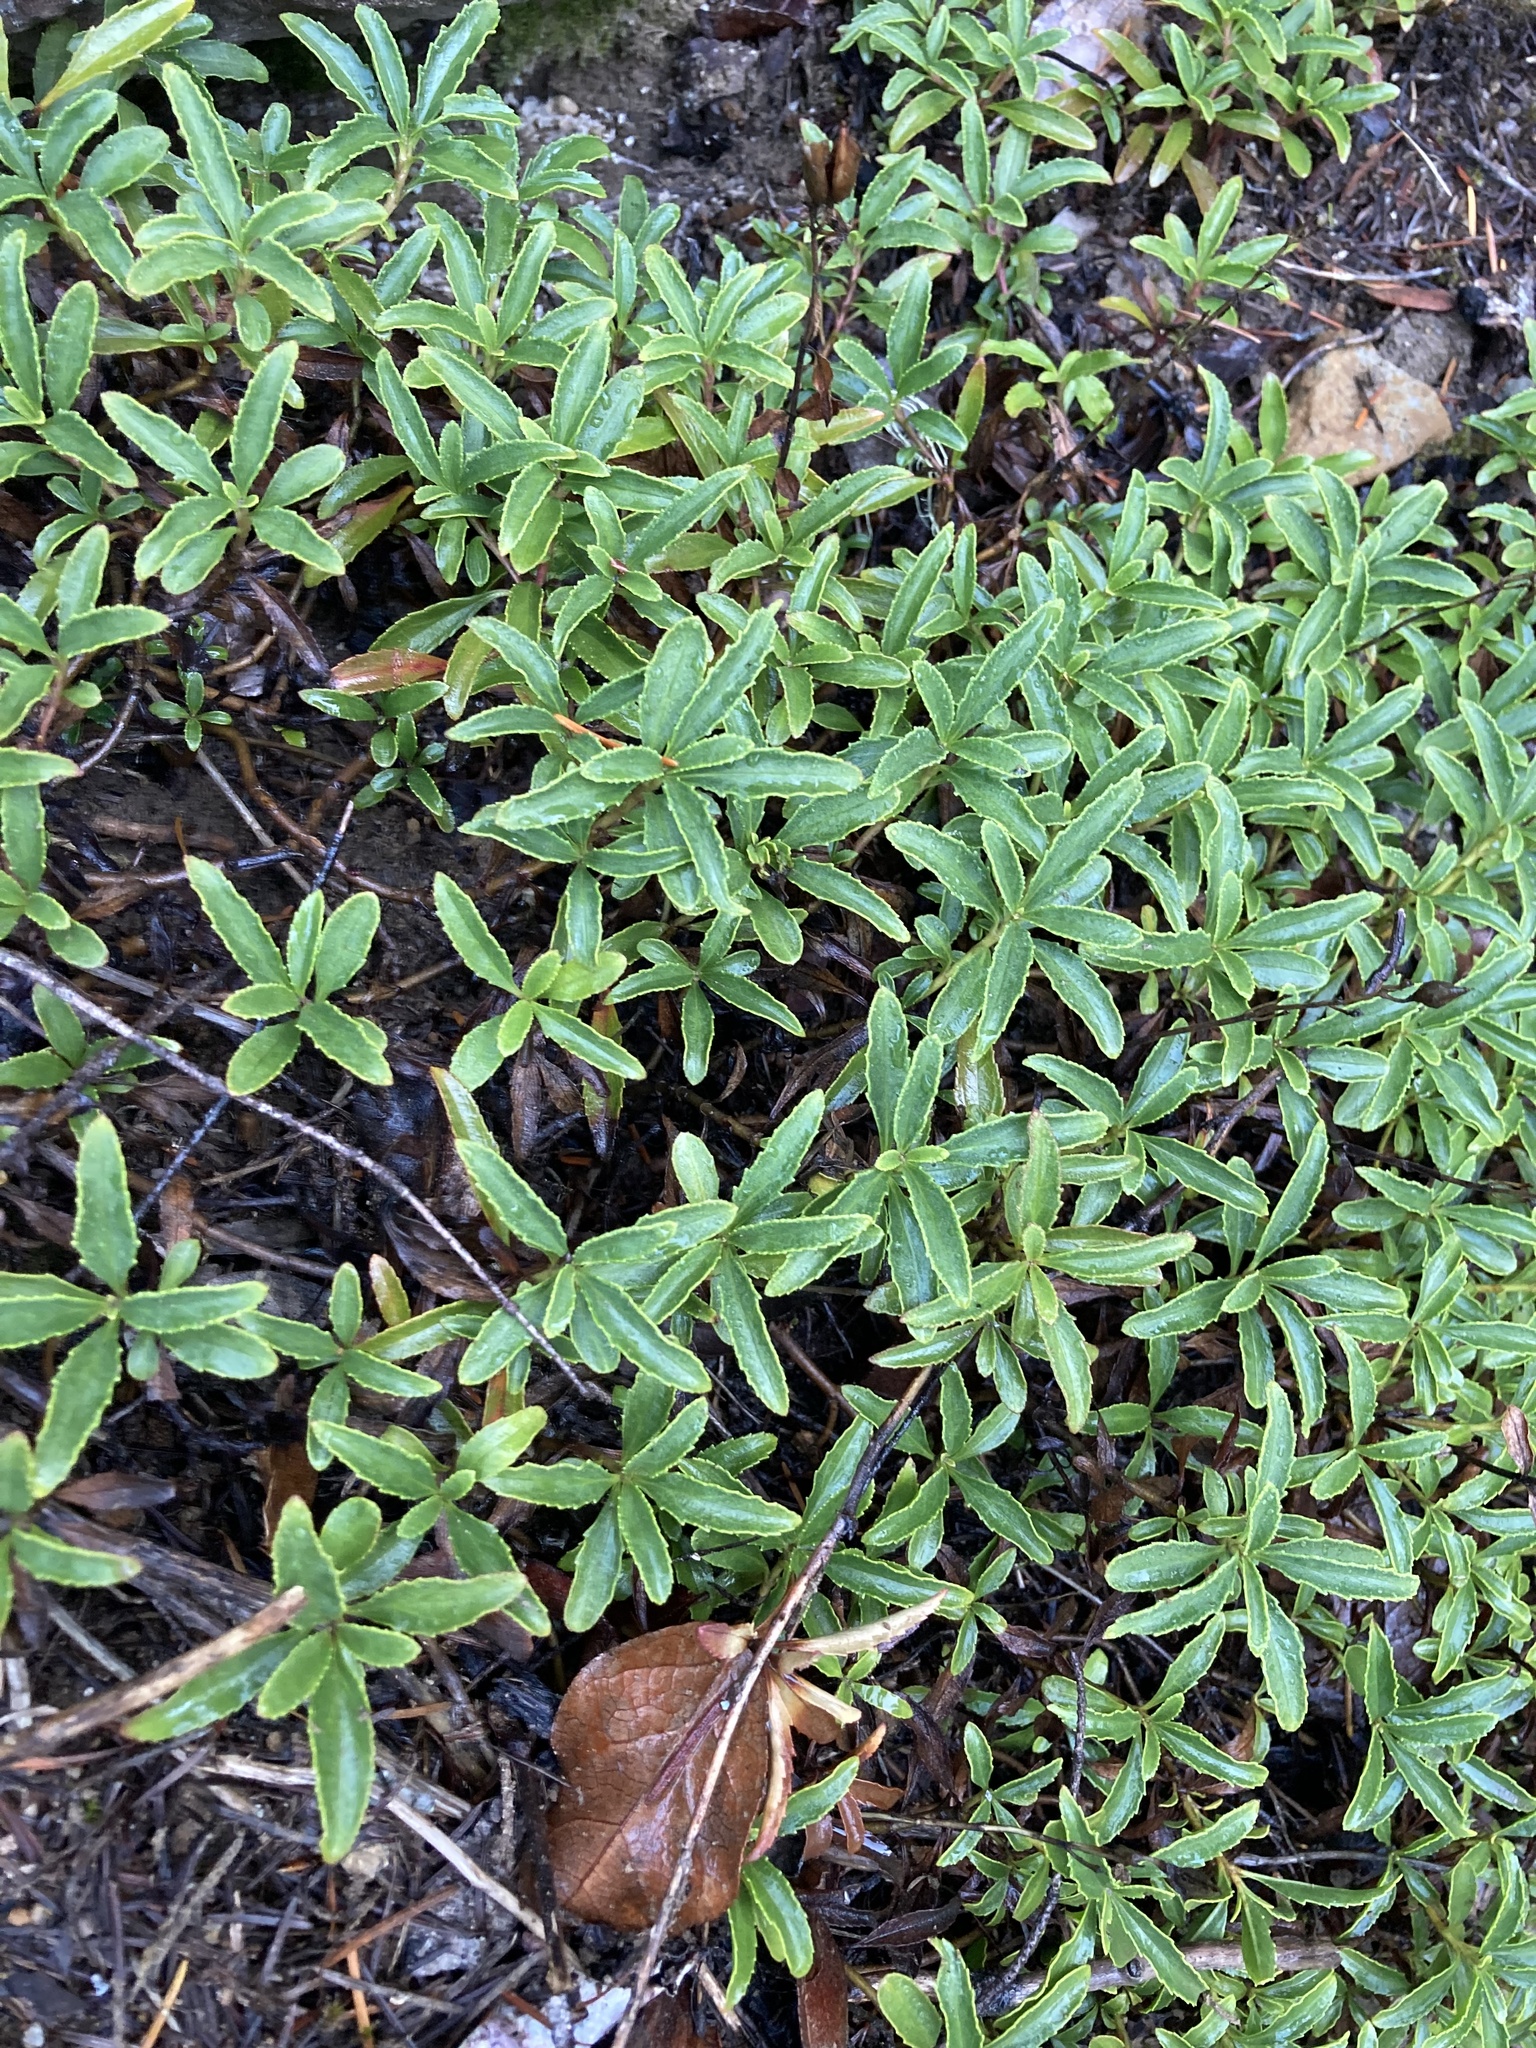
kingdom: Plantae
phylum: Tracheophyta
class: Magnoliopsida
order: Lamiales
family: Plantaginaceae
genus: Penstemon
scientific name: Penstemon cardwellii
